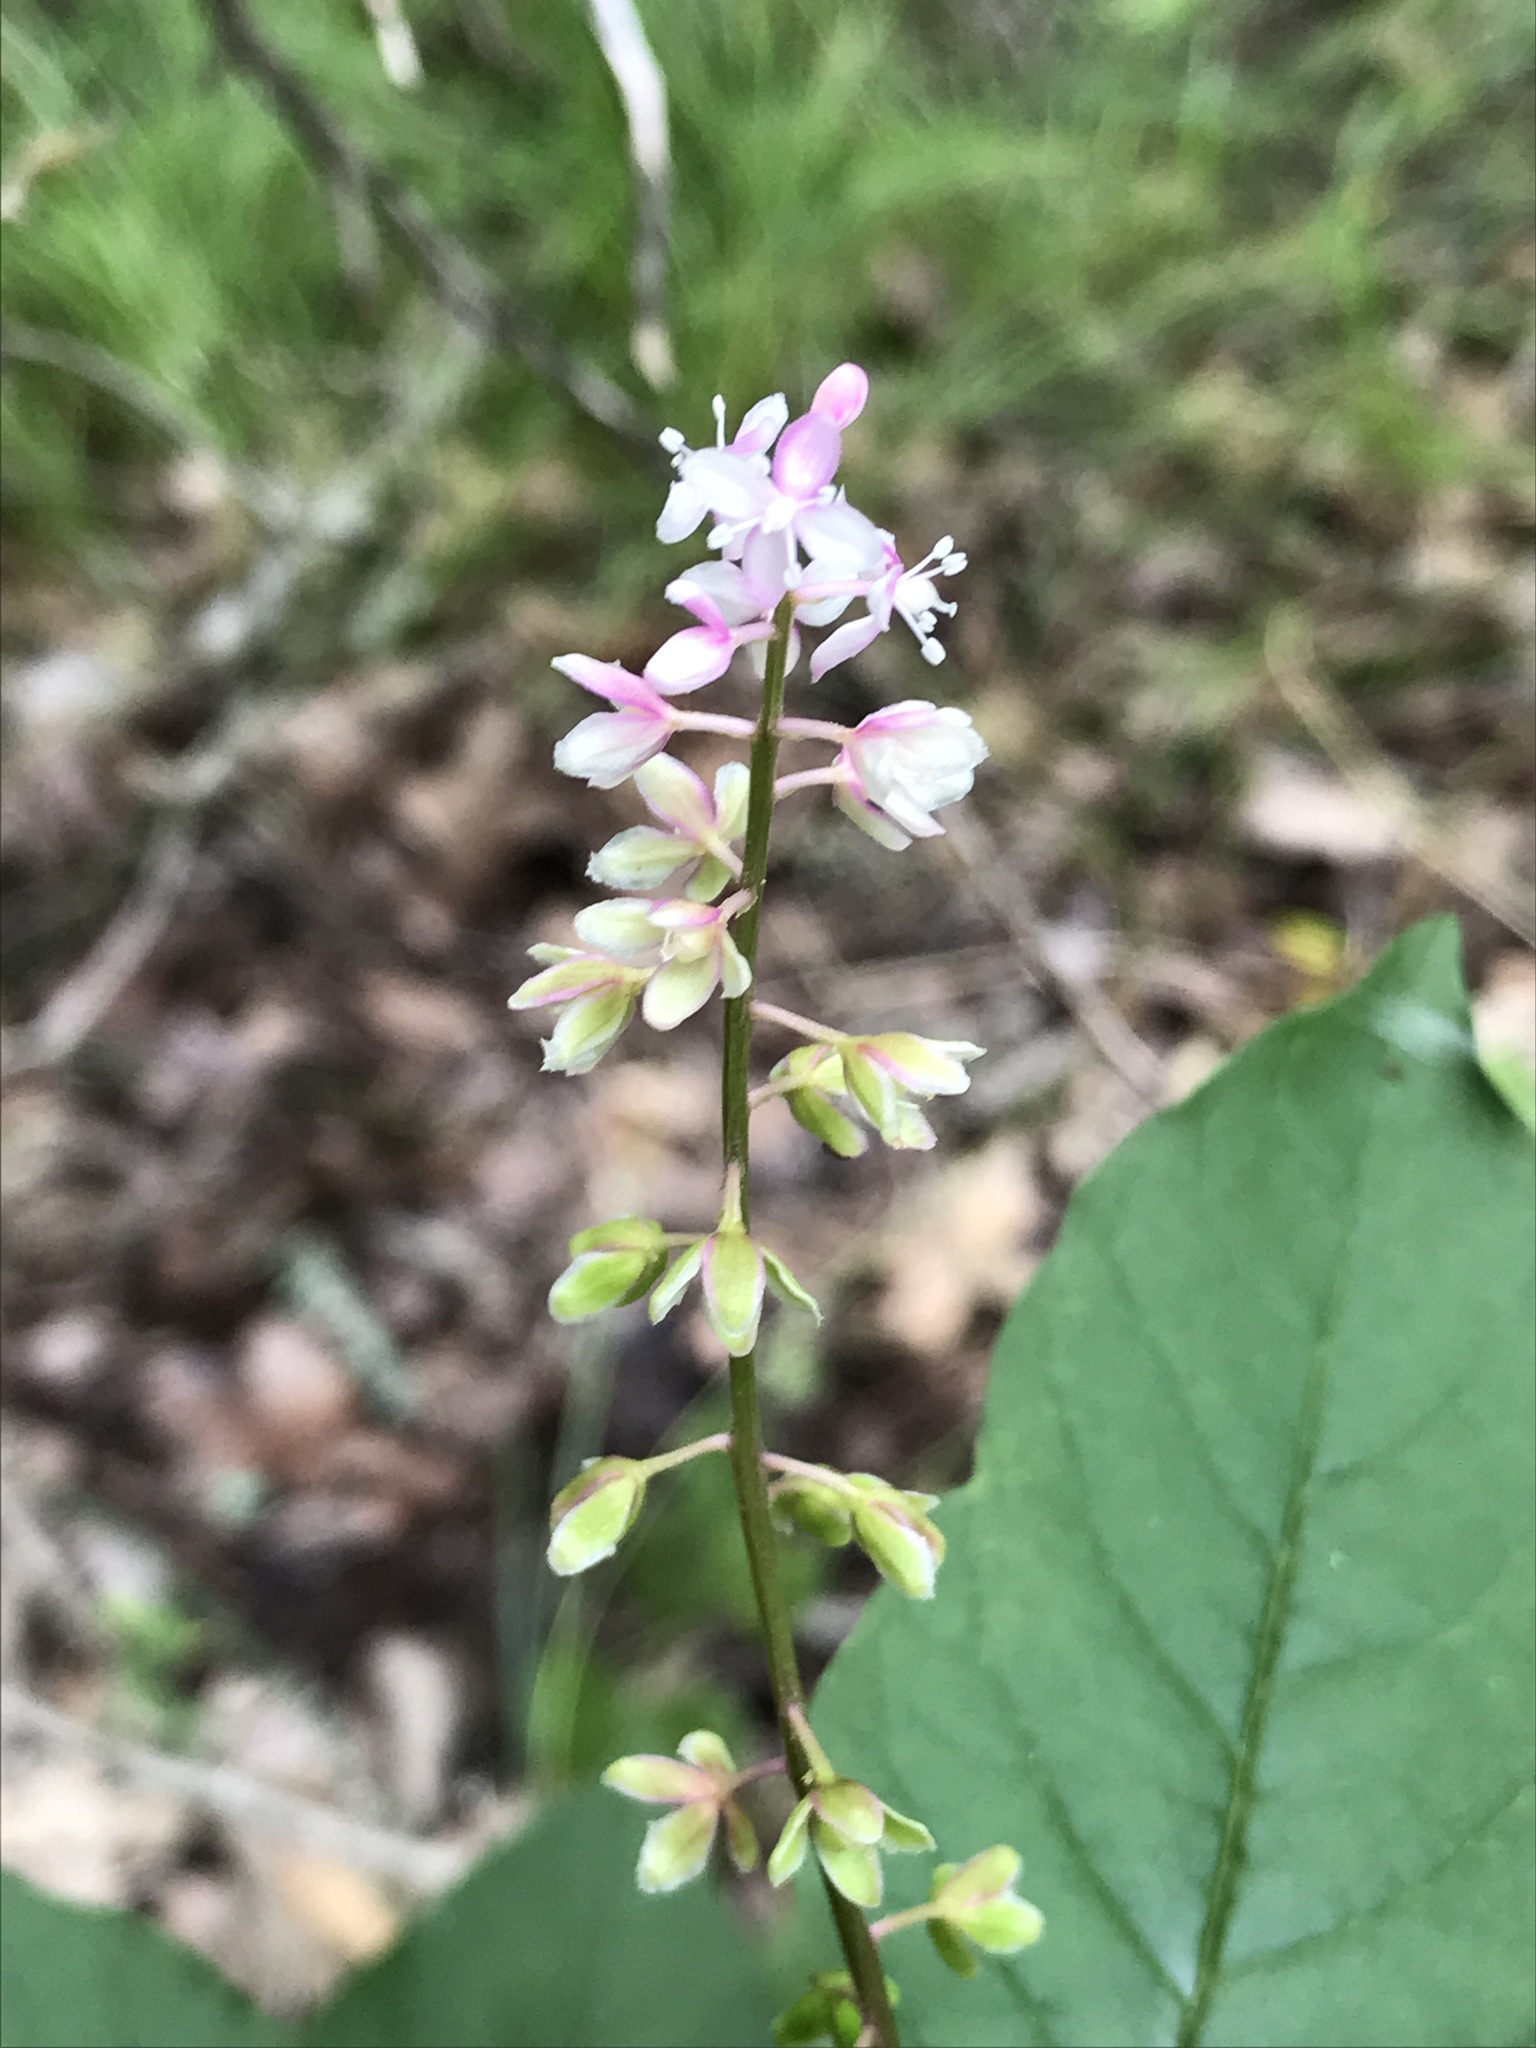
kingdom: Plantae
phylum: Tracheophyta
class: Magnoliopsida
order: Caryophyllales
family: Phytolaccaceae
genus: Rivina
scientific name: Rivina humilis
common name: Rougeplant
